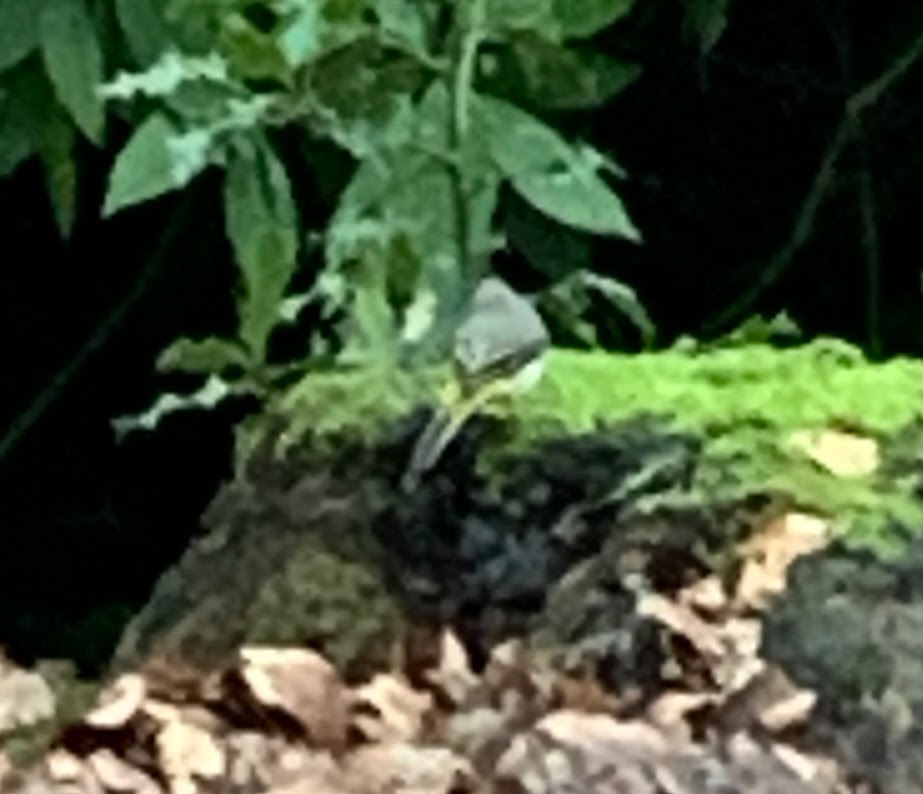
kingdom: Animalia
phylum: Chordata
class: Aves
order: Passeriformes
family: Motacillidae
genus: Motacilla
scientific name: Motacilla cinerea
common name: Grey wagtail
